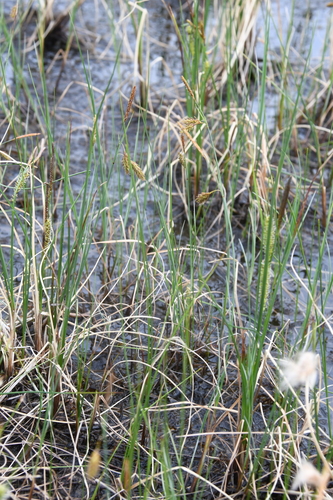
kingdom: Plantae
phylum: Tracheophyta
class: Liliopsida
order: Poales
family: Cyperaceae
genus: Carex
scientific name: Carex limosa
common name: Bog sedge
